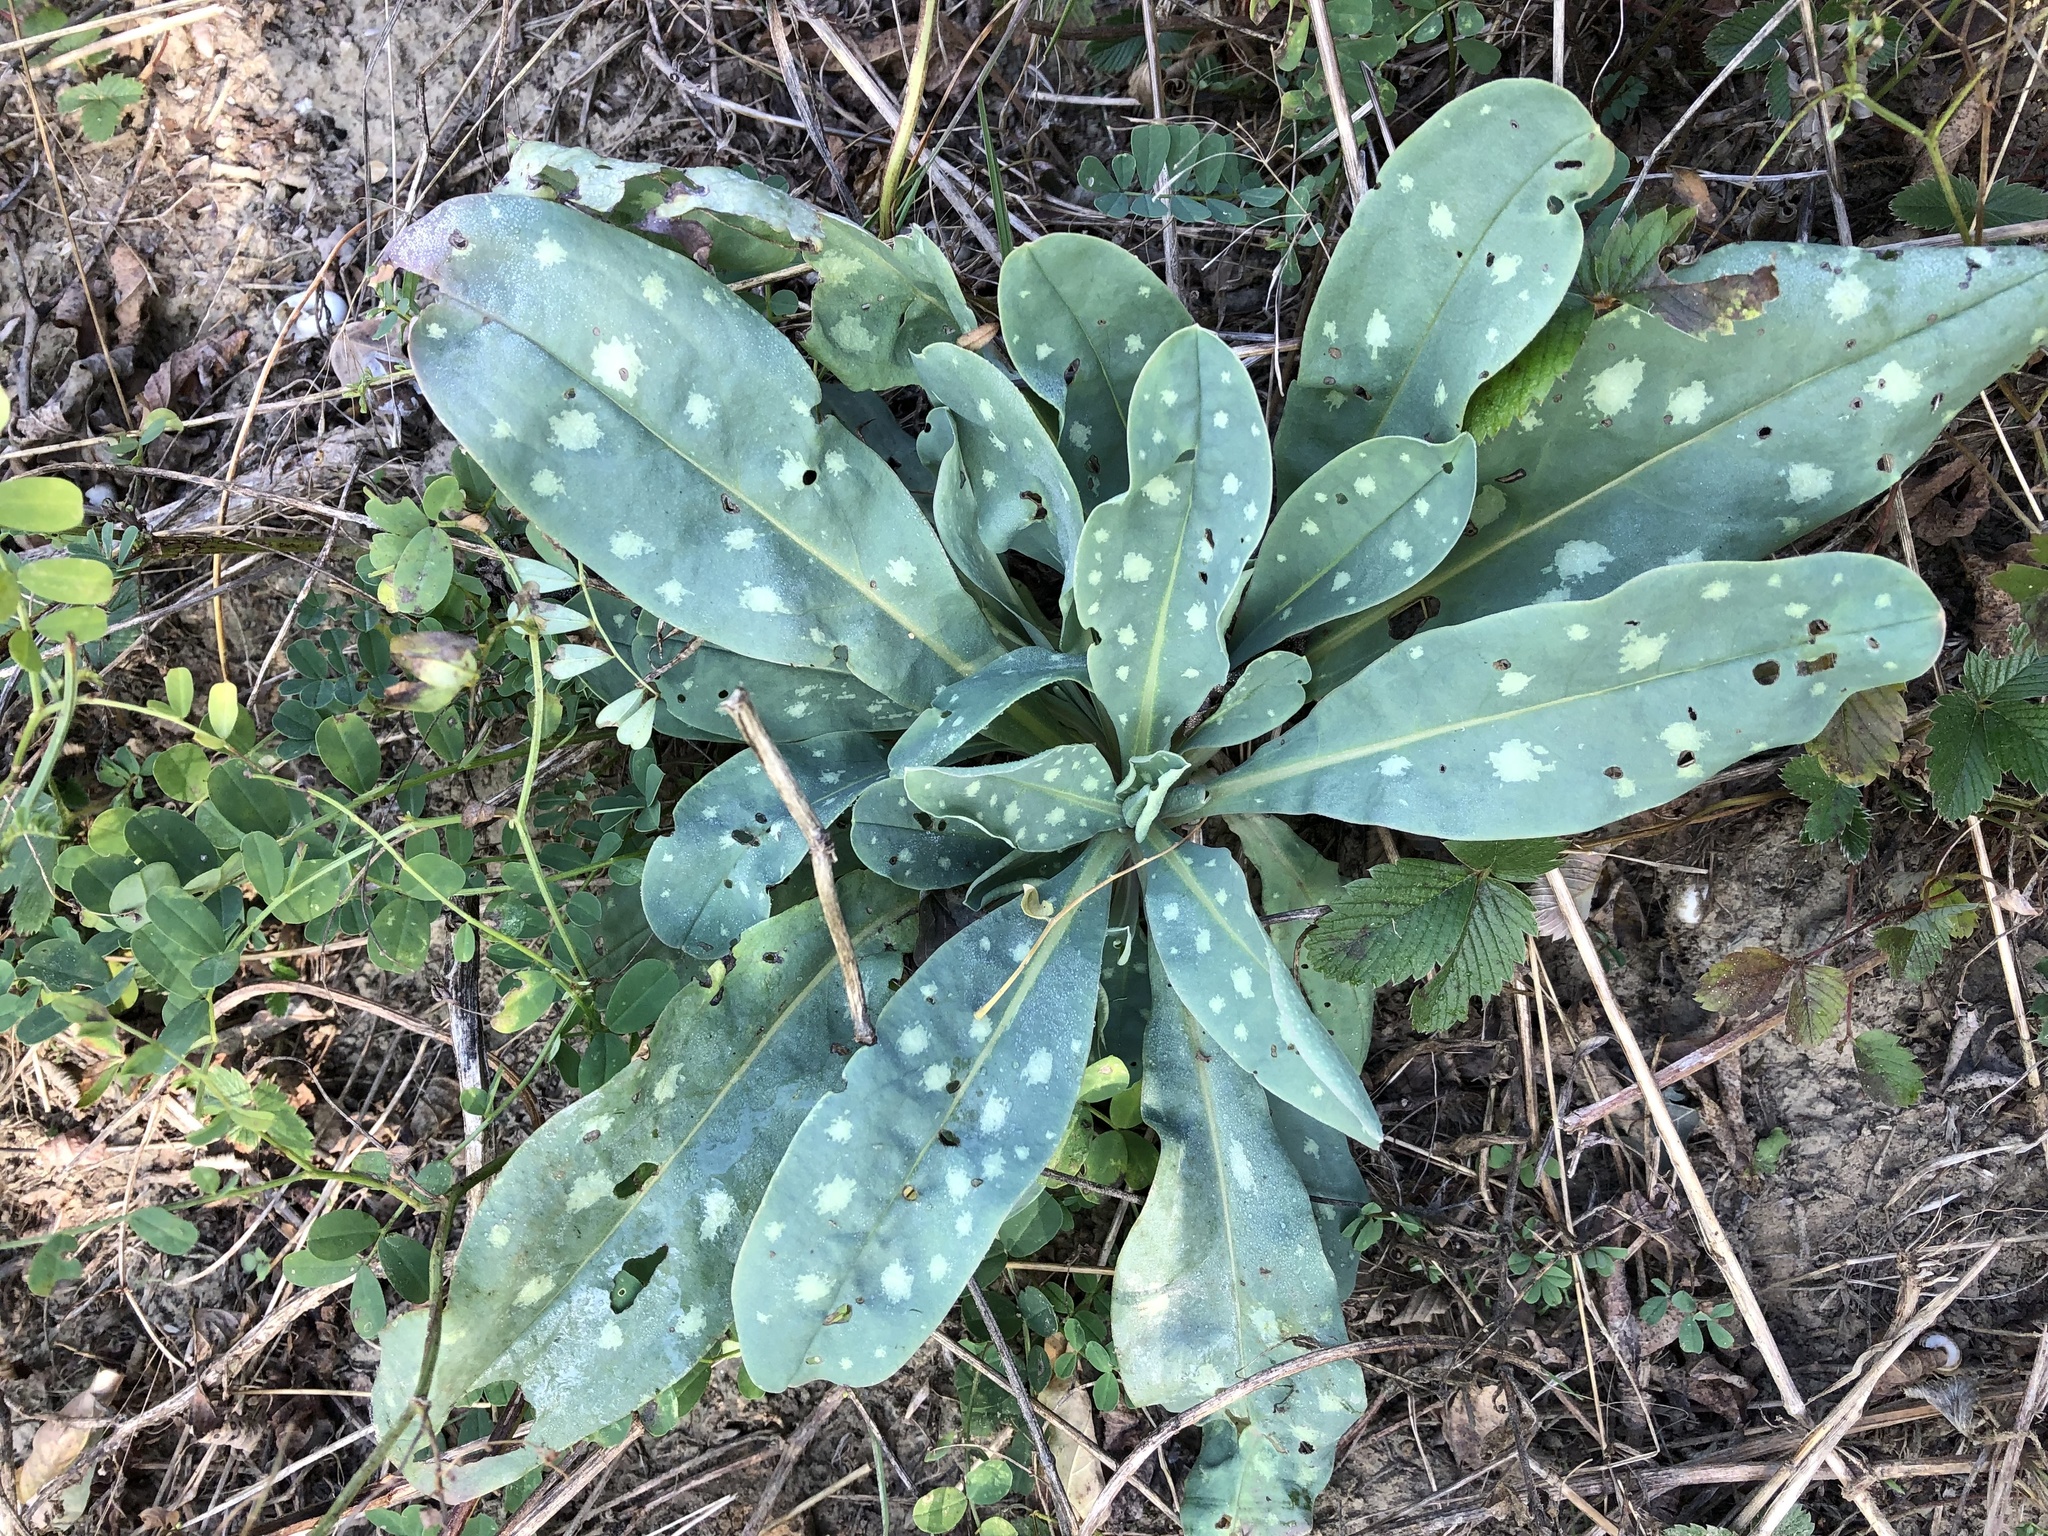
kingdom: Plantae
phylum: Tracheophyta
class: Magnoliopsida
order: Boraginales
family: Boraginaceae
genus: Cerinthe
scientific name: Cerinthe minor
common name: Lesser honeywort
